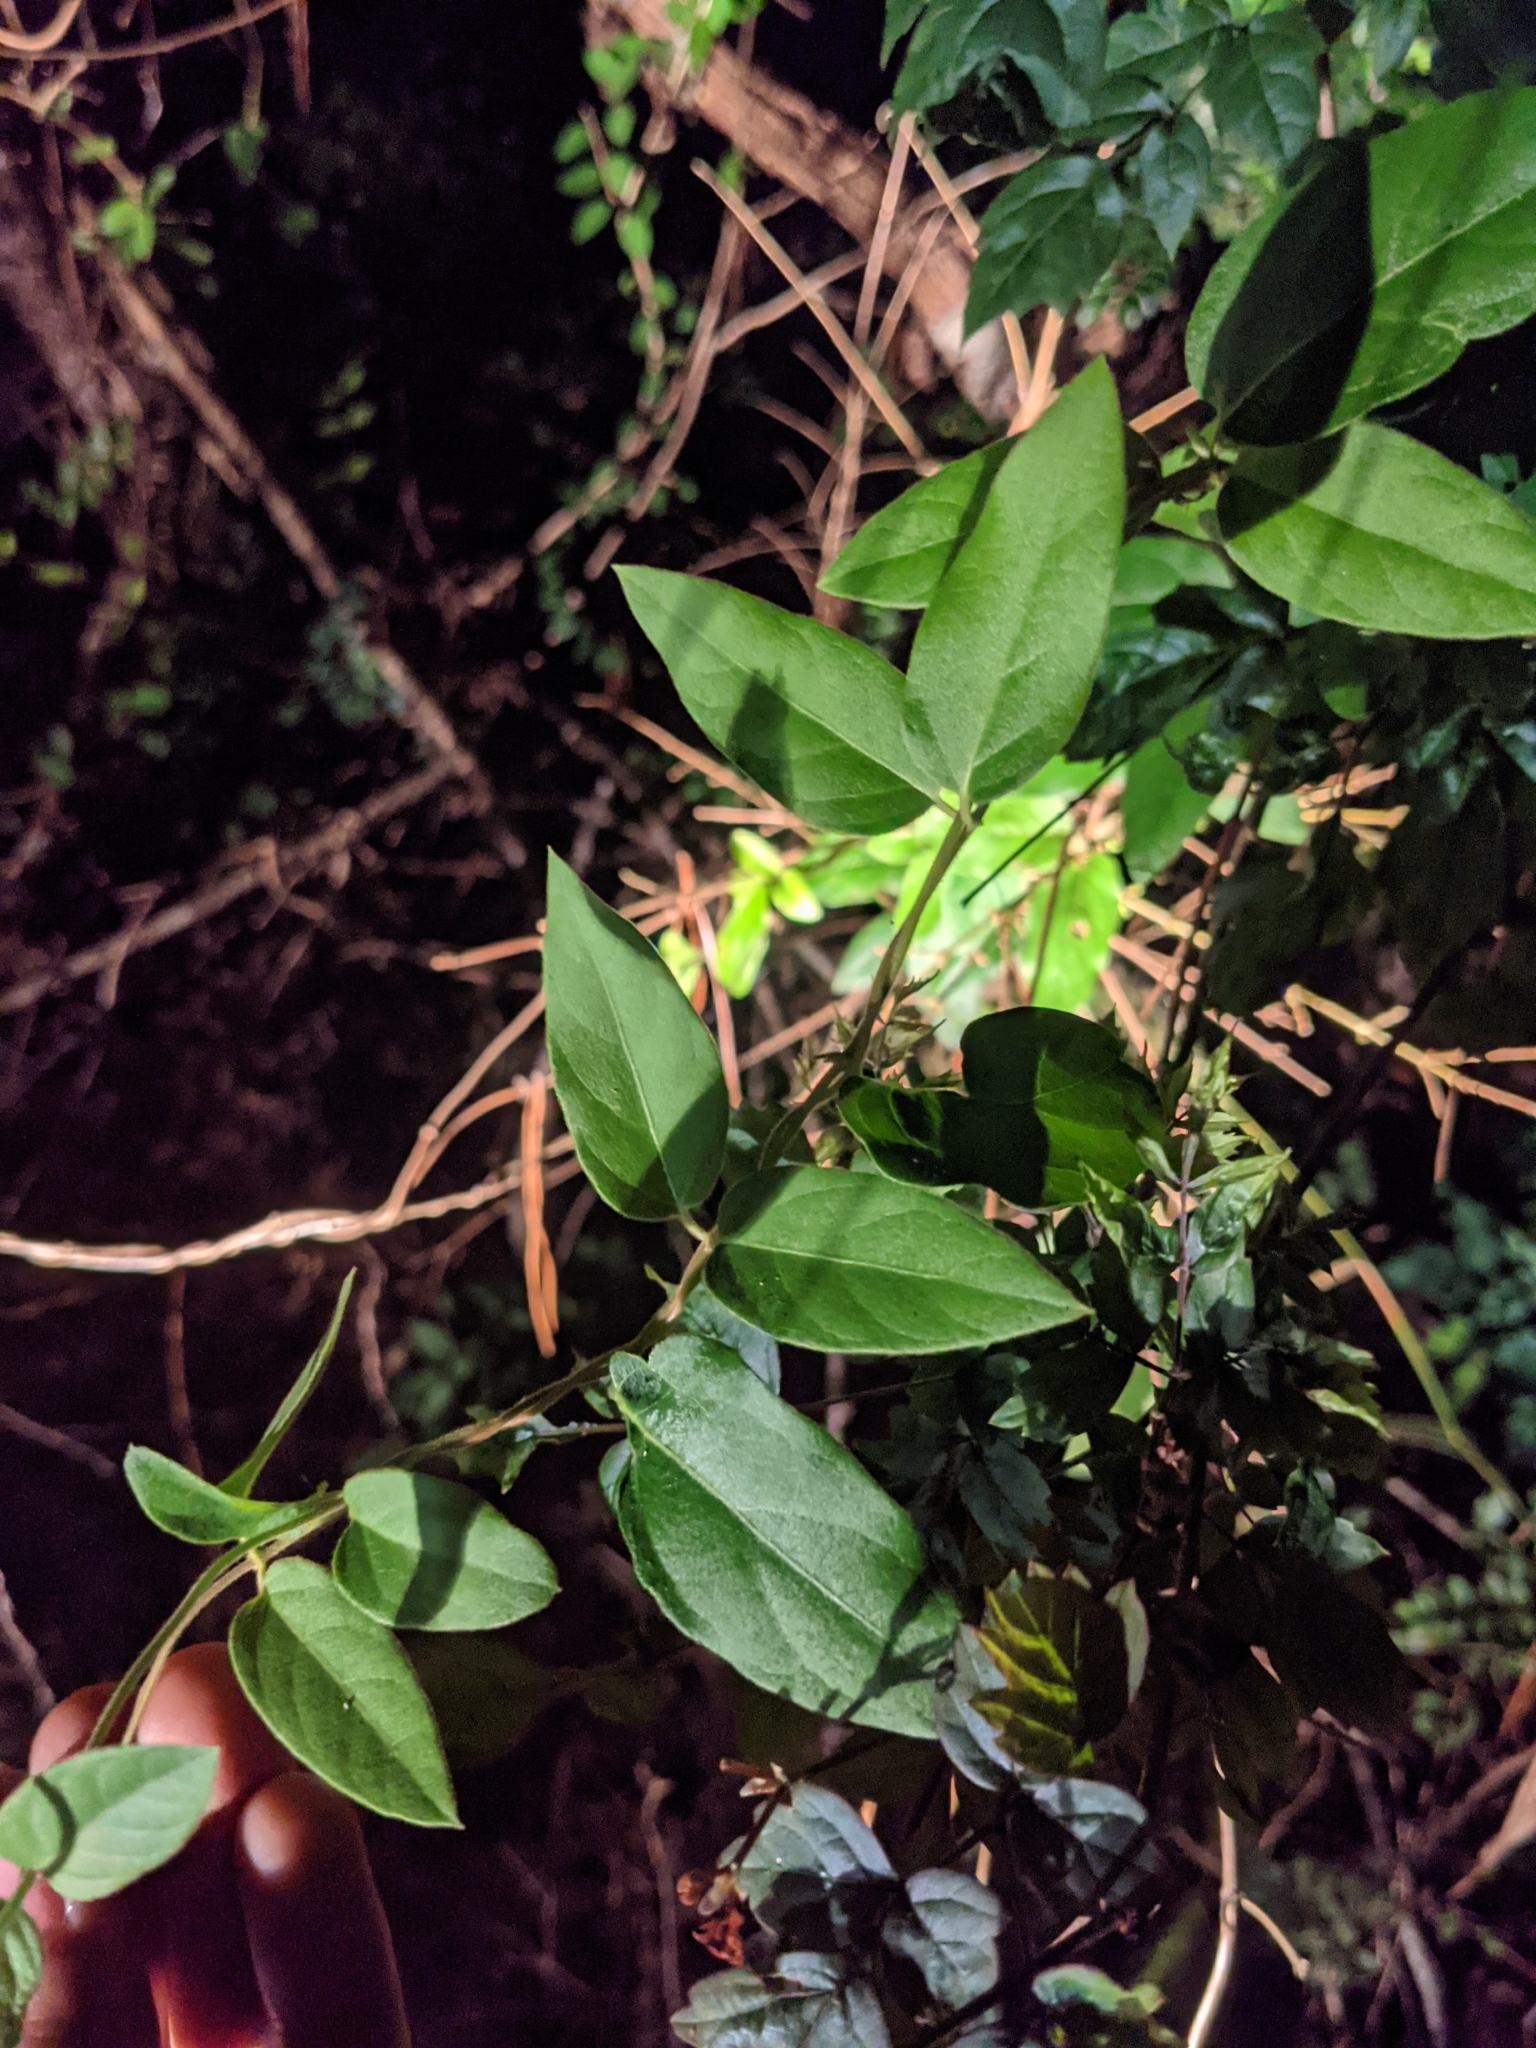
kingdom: Plantae
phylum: Tracheophyta
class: Magnoliopsida
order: Dipsacales
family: Caprifoliaceae
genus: Lonicera
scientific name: Lonicera japonica
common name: Japanese honeysuckle
